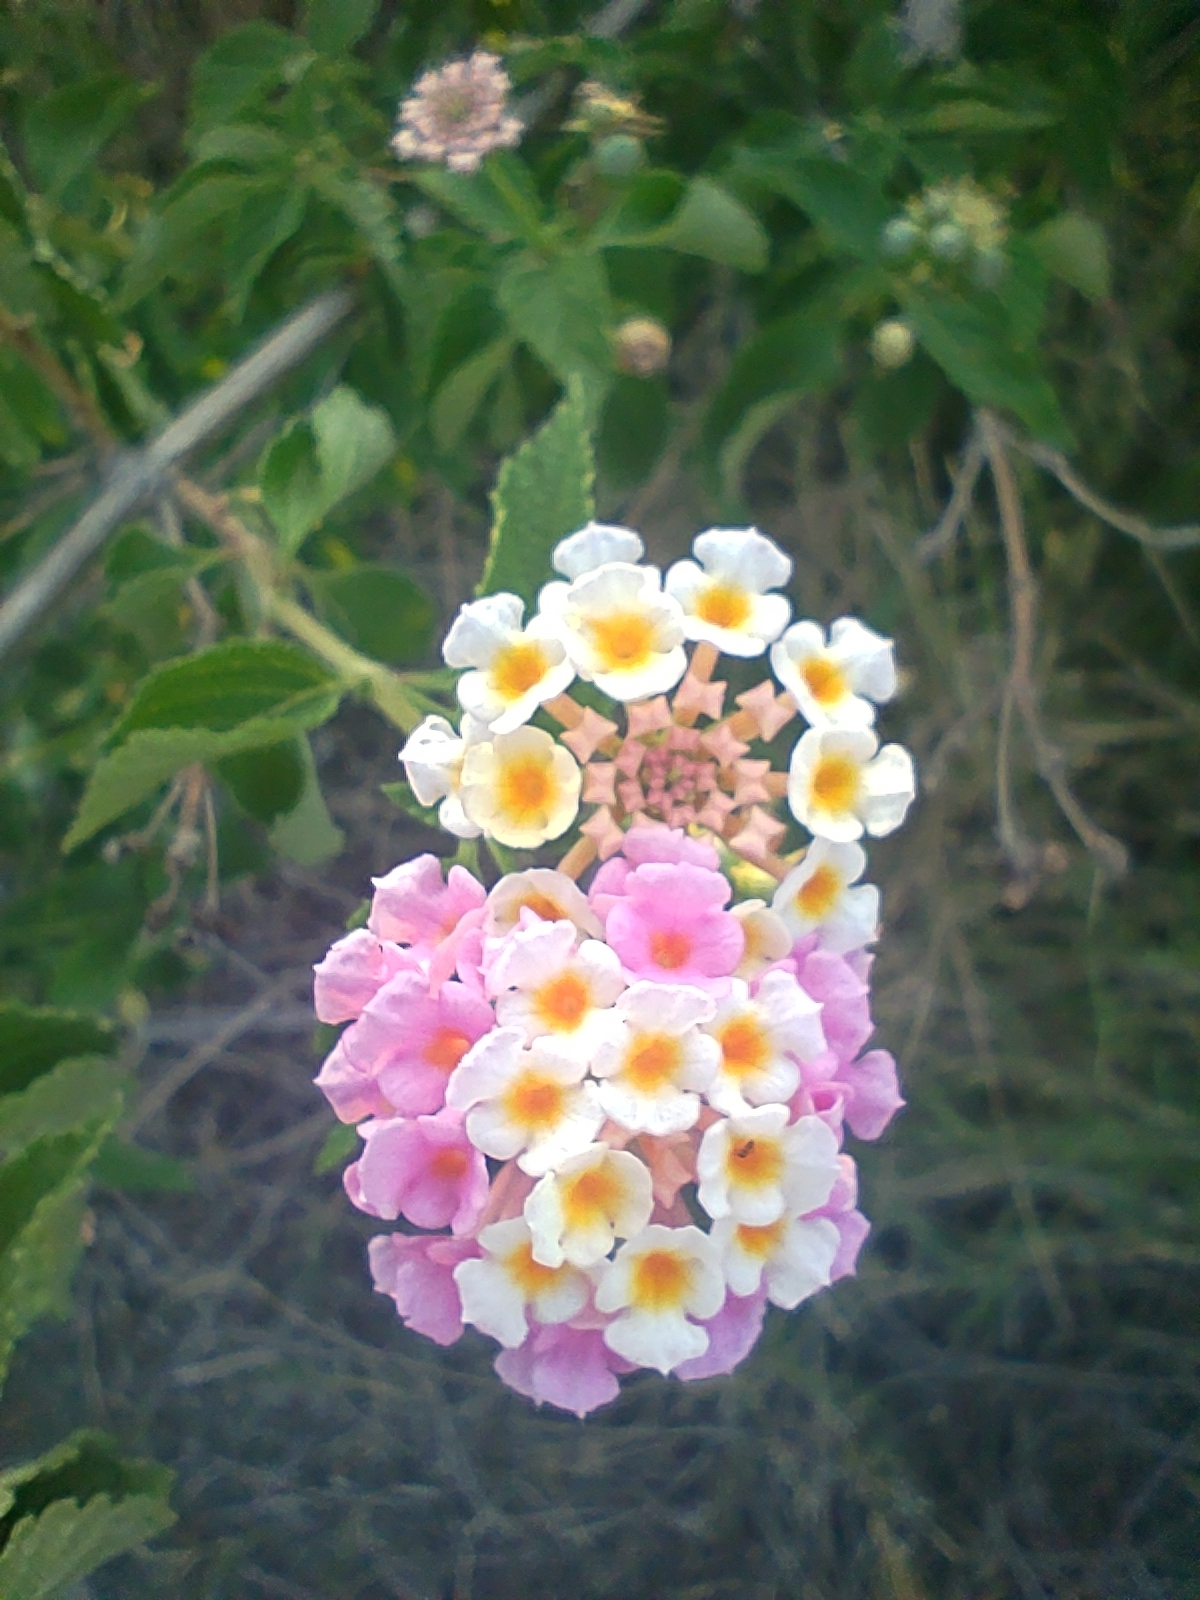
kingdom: Plantae
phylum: Tracheophyta
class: Magnoliopsida
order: Lamiales
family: Verbenaceae
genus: Lantana
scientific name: Lantana camara
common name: Lantana
